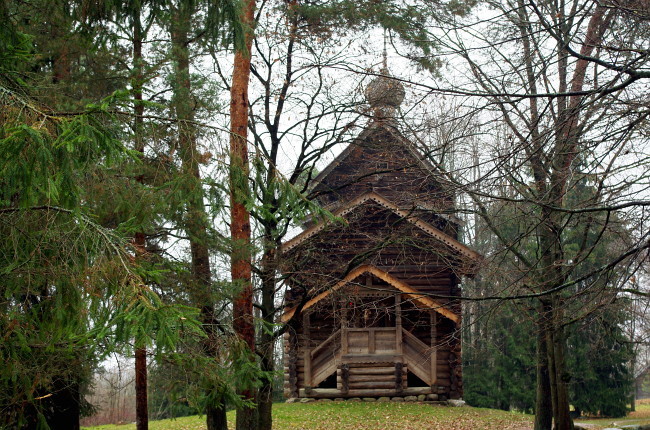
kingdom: Plantae
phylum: Tracheophyta
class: Pinopsida
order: Pinales
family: Pinaceae
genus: Pinus
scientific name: Pinus sylvestris
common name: Scots pine
